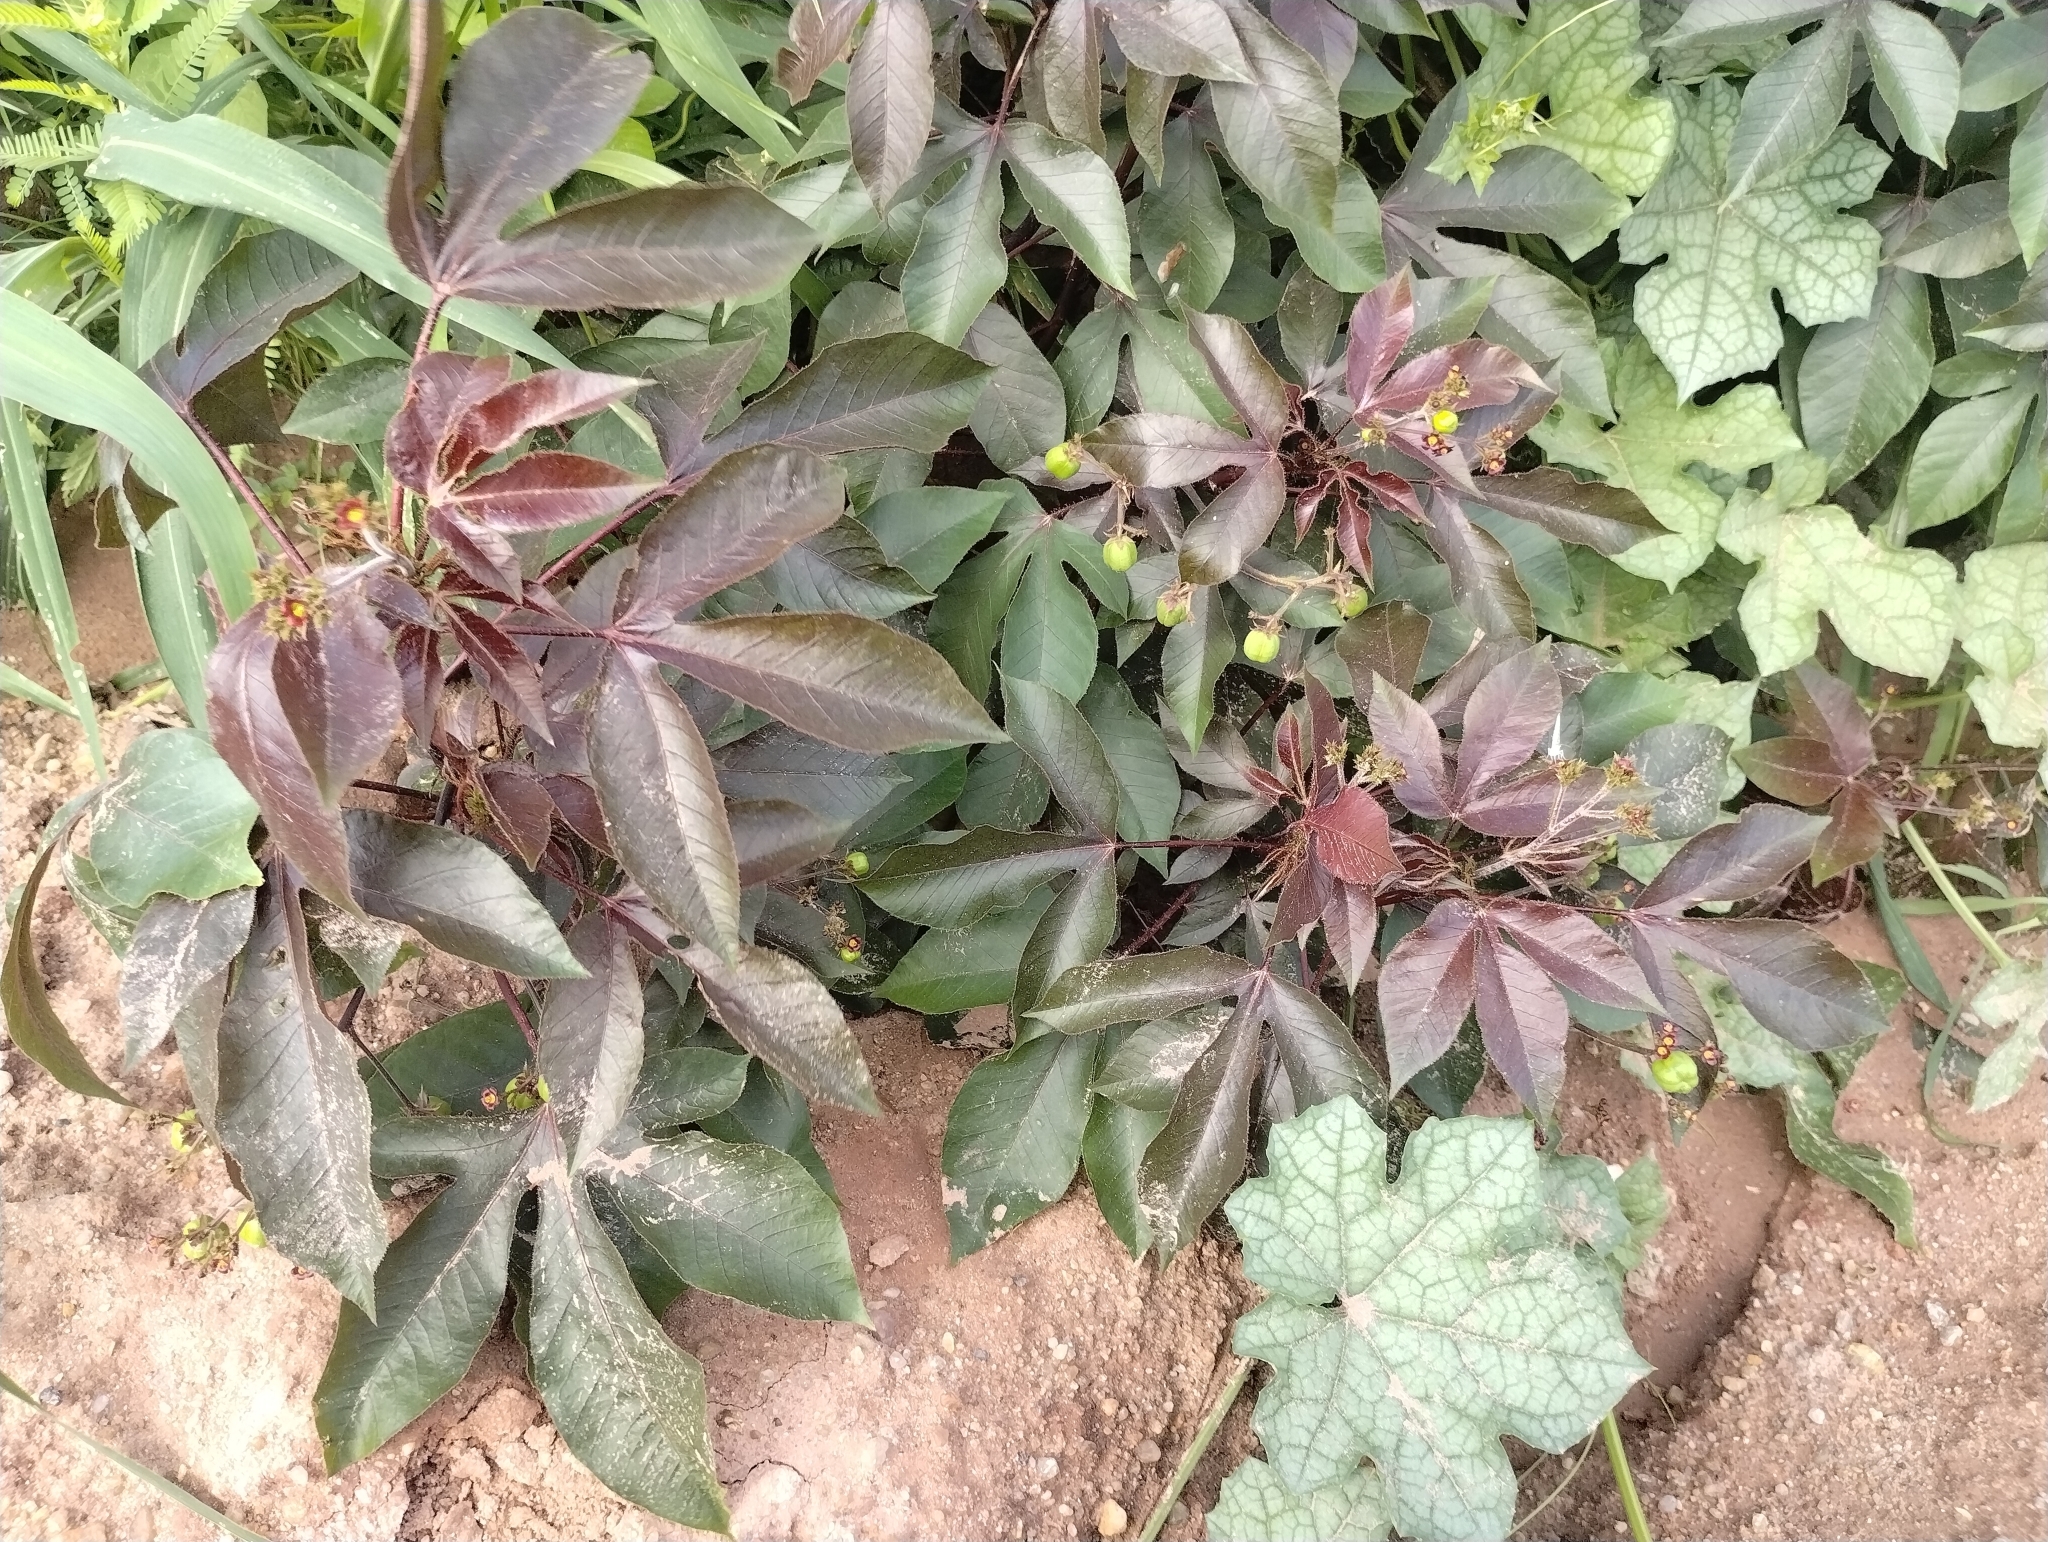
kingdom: Plantae
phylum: Tracheophyta
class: Magnoliopsida
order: Malpighiales
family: Euphorbiaceae
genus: Jatropha
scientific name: Jatropha gossypiifolia
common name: Bellyache bush
